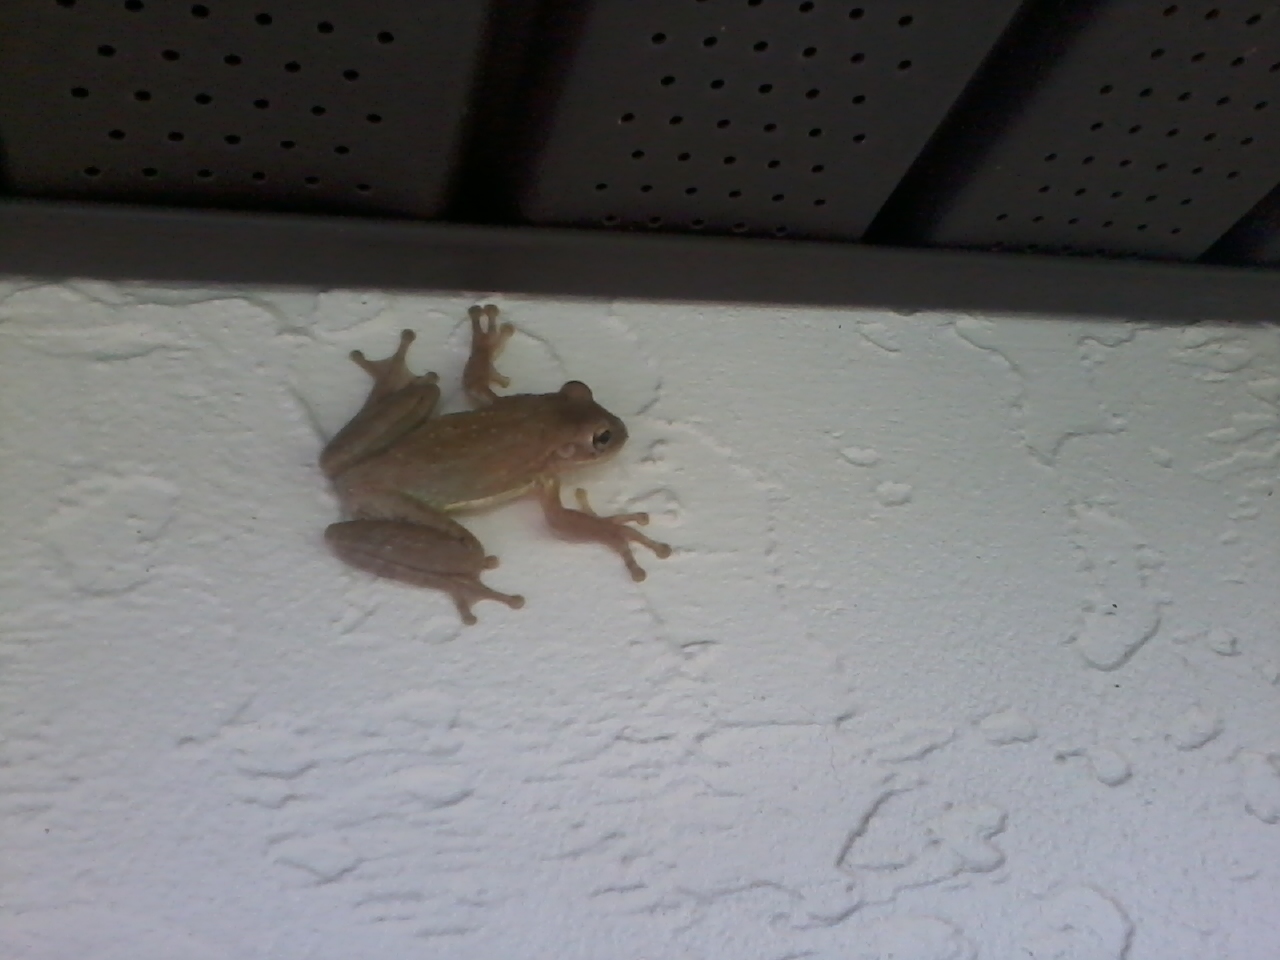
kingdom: Animalia
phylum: Chordata
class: Amphibia
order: Anura
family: Hylidae
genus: Osteopilus
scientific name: Osteopilus septentrionalis
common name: Cuban treefrog
